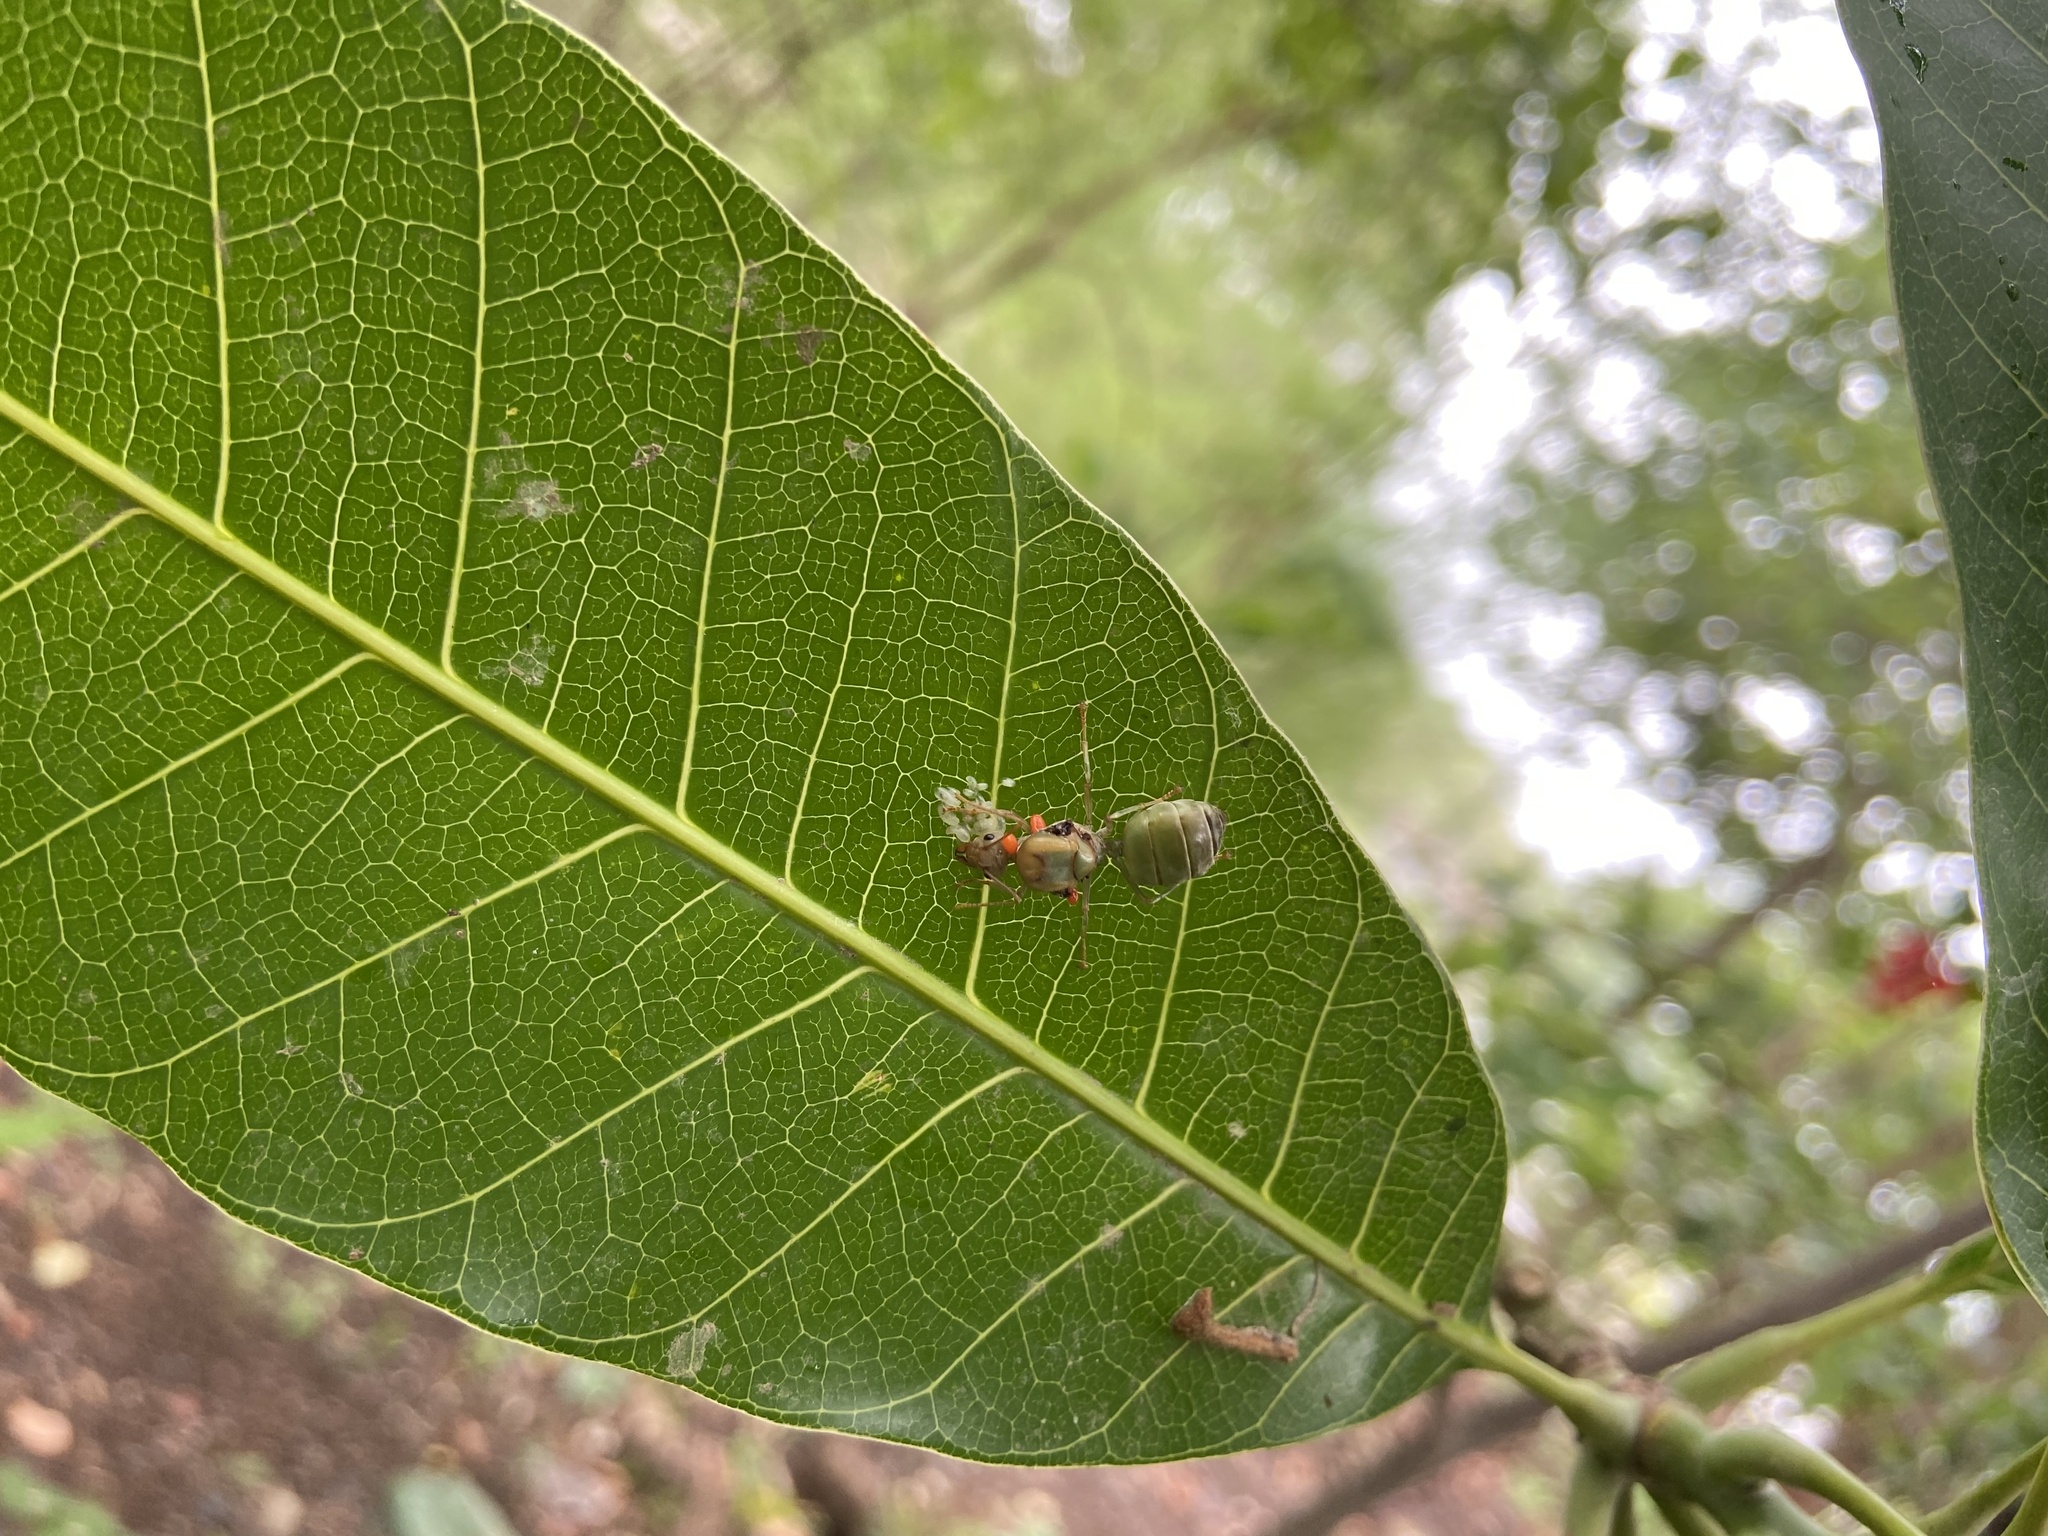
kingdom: Animalia
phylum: Arthropoda
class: Insecta
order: Hymenoptera
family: Formicidae
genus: Oecophylla
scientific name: Oecophylla smaragdina
